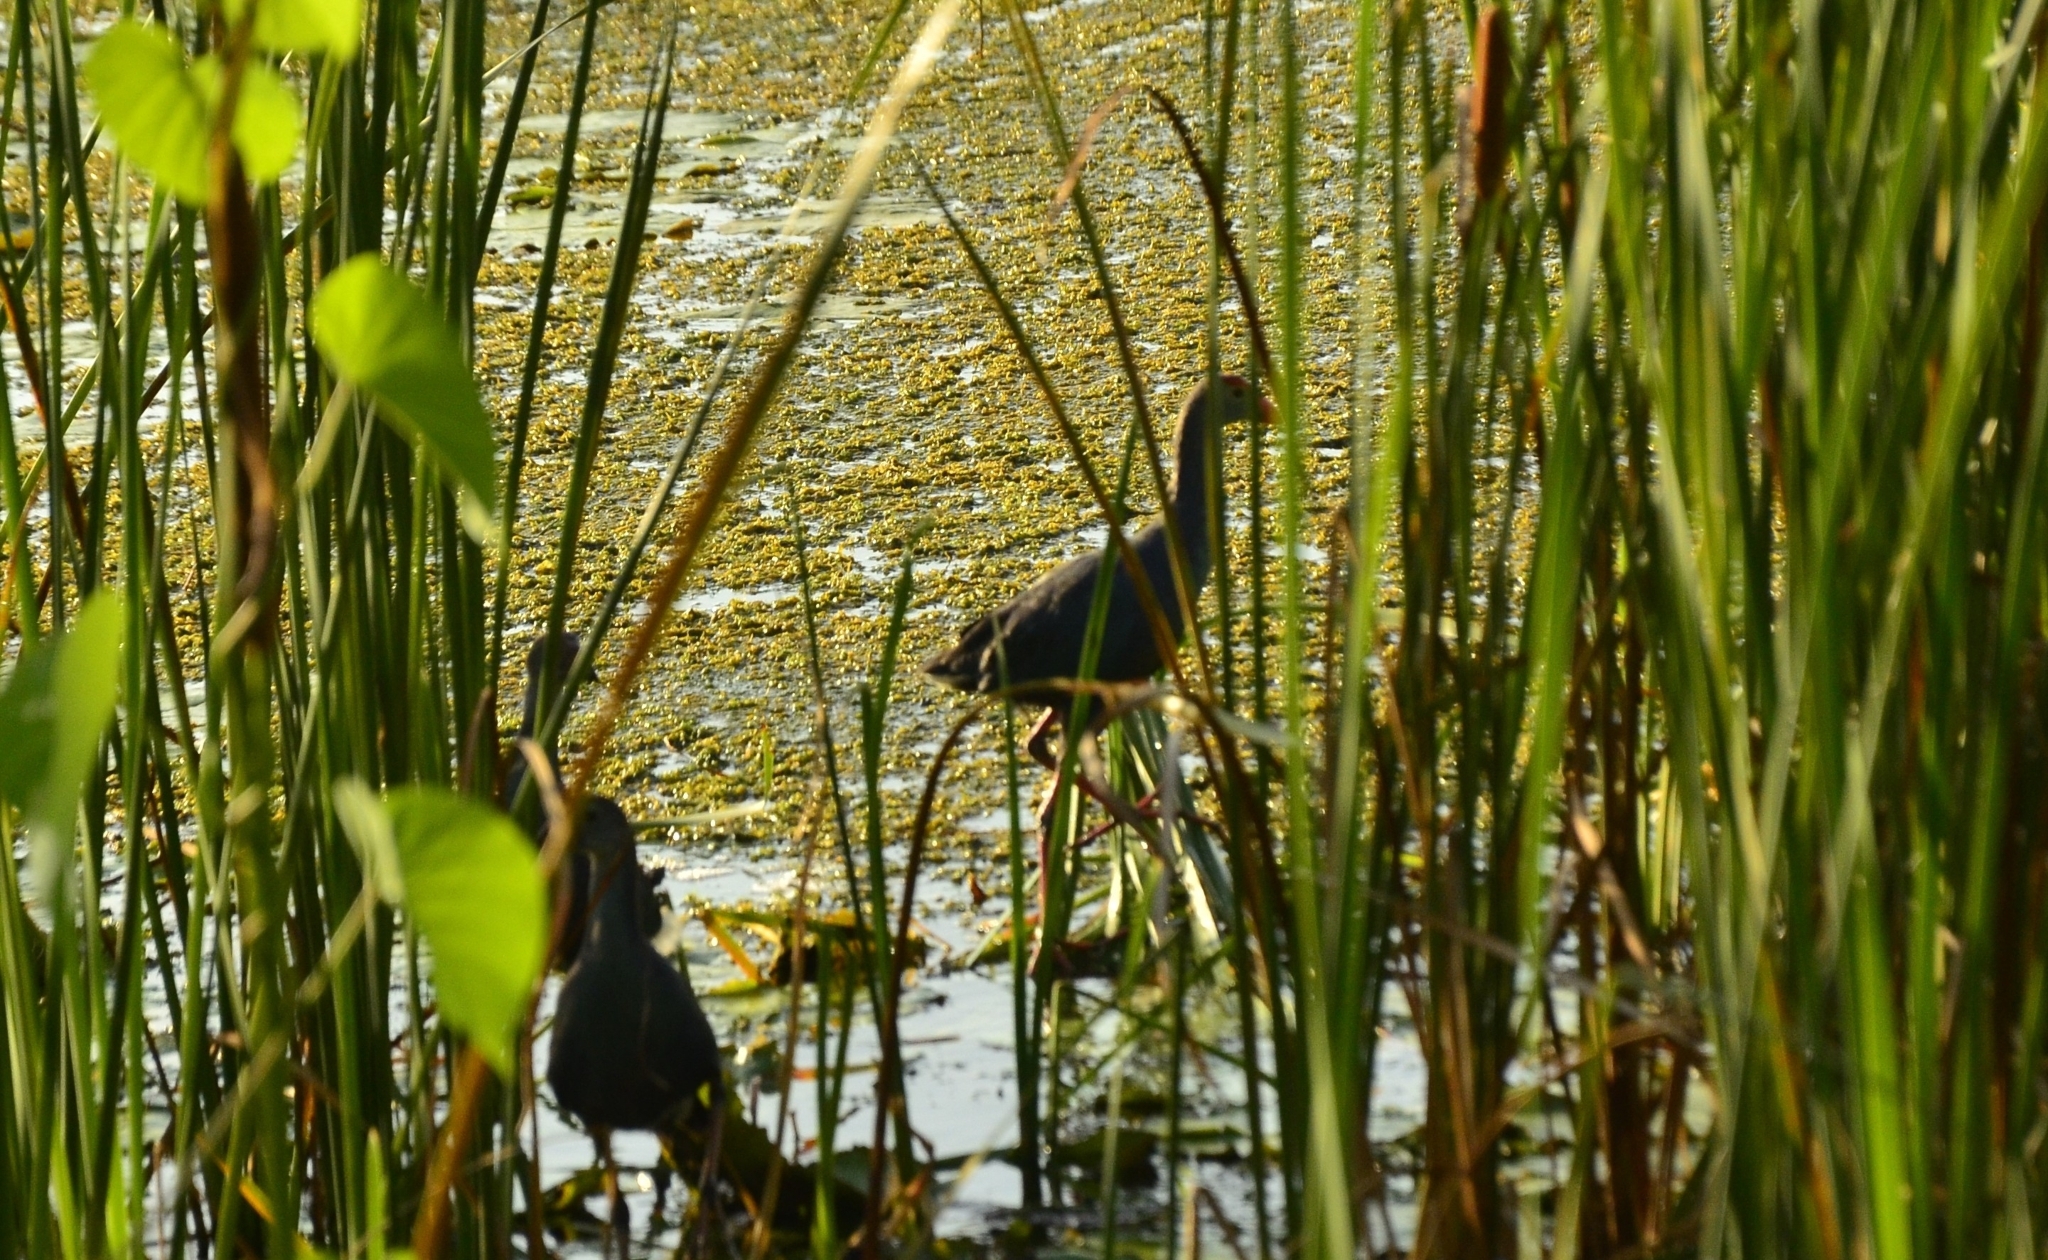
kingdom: Animalia
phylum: Chordata
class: Aves
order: Gruiformes
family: Rallidae
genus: Porphyrio
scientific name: Porphyrio porphyrio
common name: Purple swamphen
